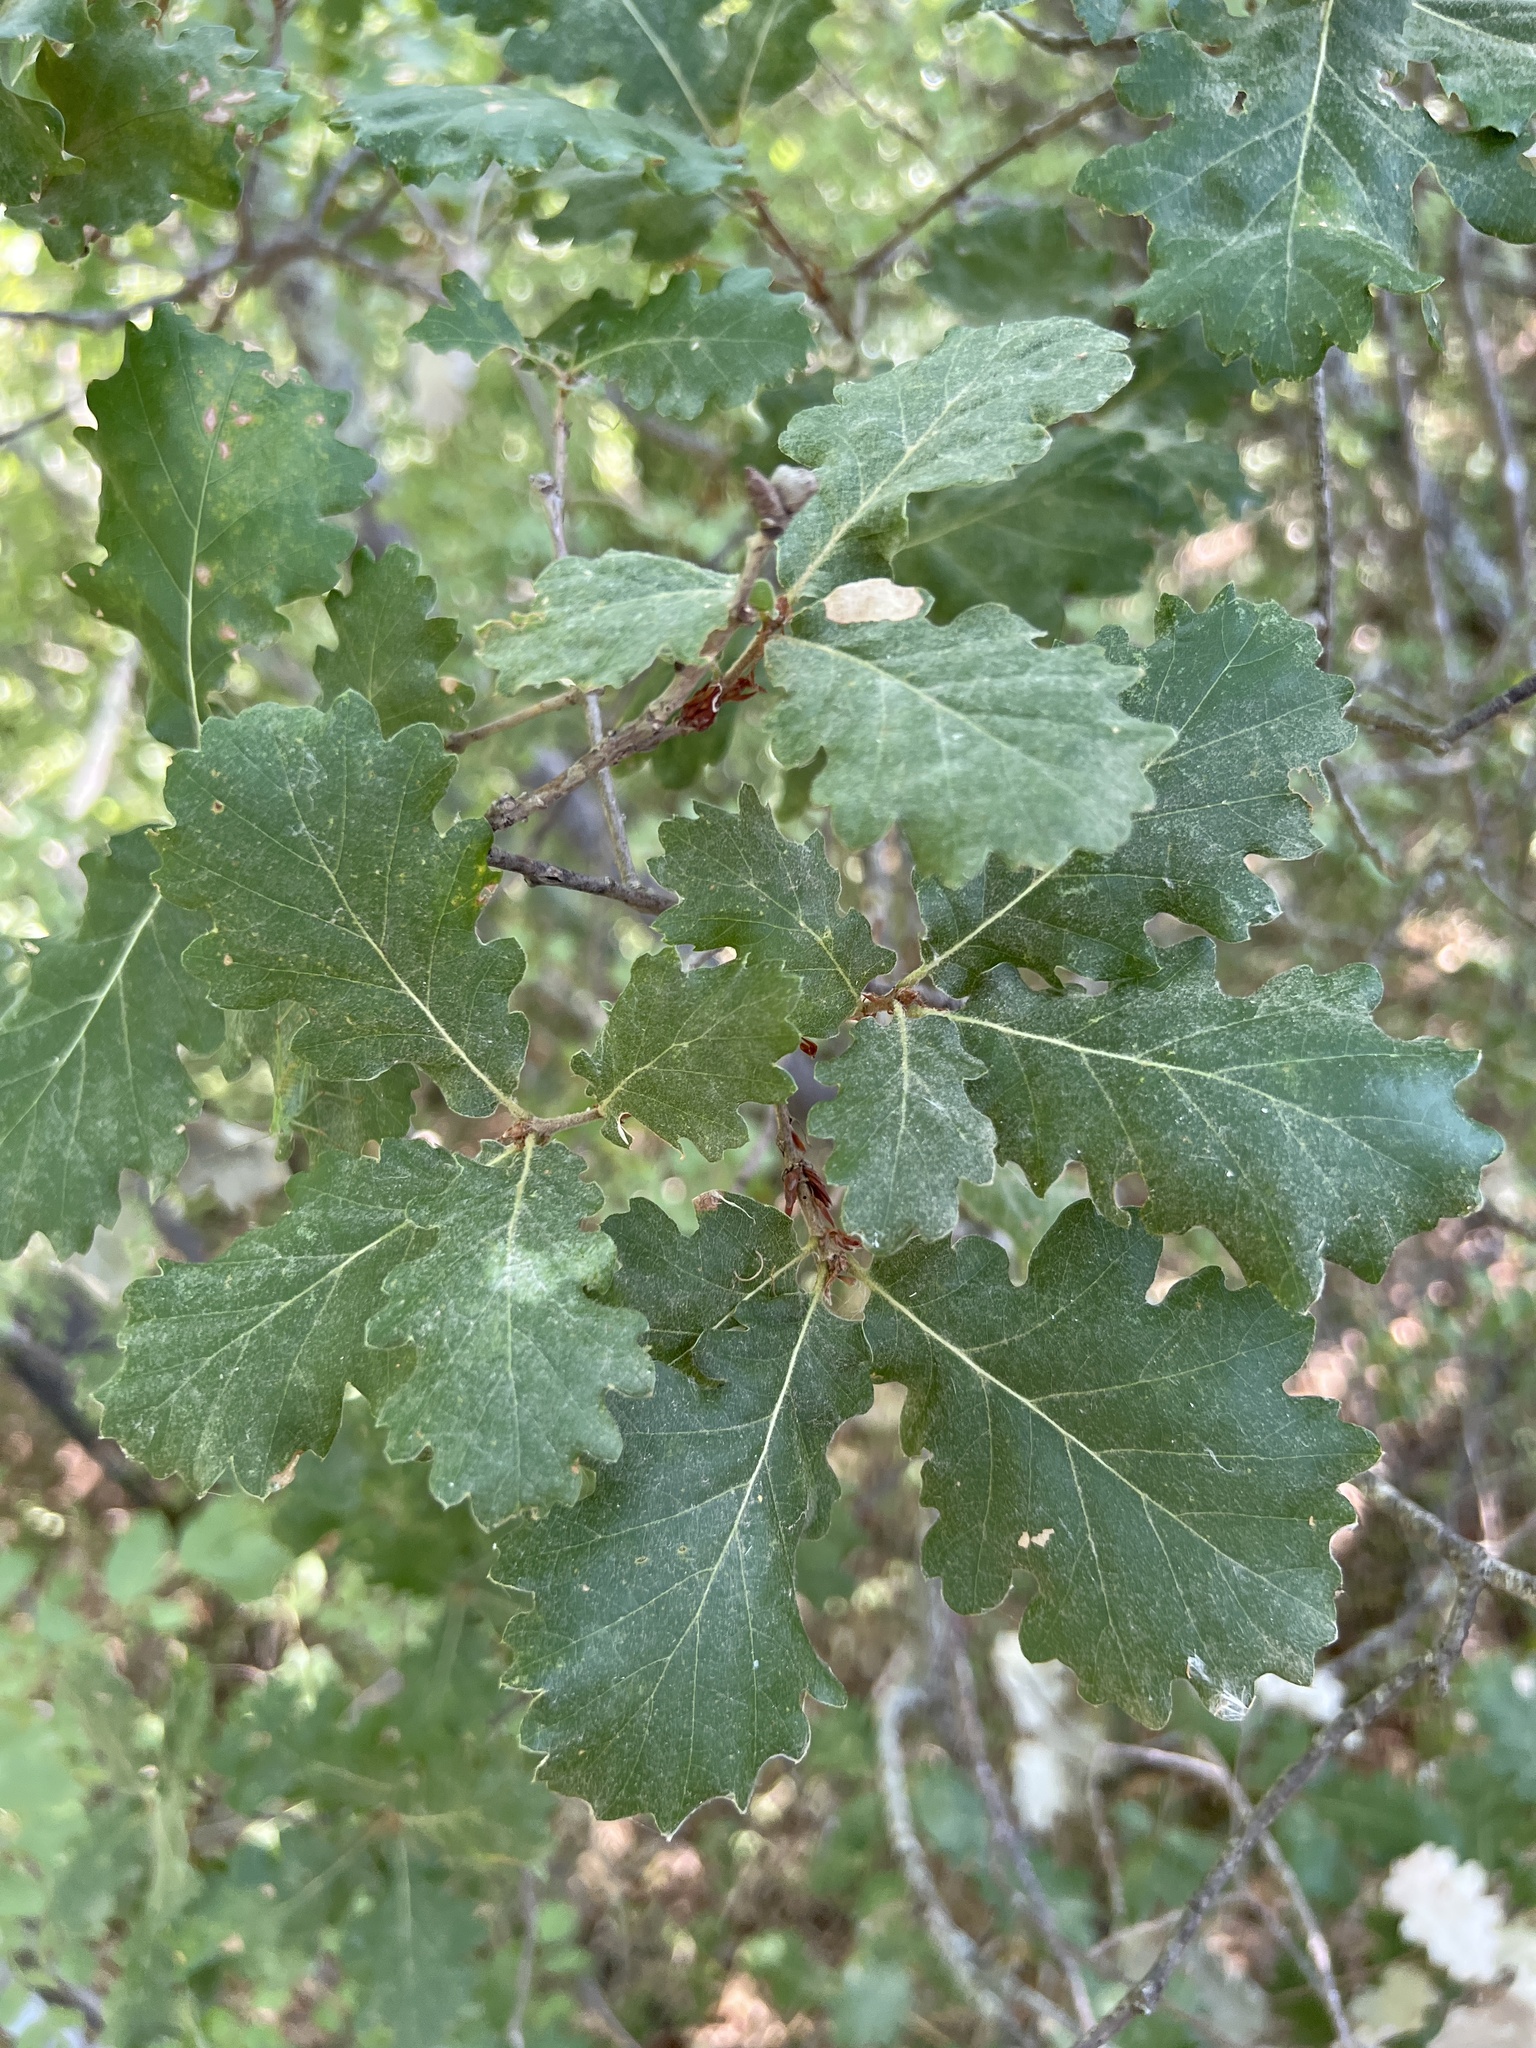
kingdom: Plantae
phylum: Tracheophyta
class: Magnoliopsida
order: Fagales
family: Fagaceae
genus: Quercus
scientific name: Quercus pubescens
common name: Downy oak
